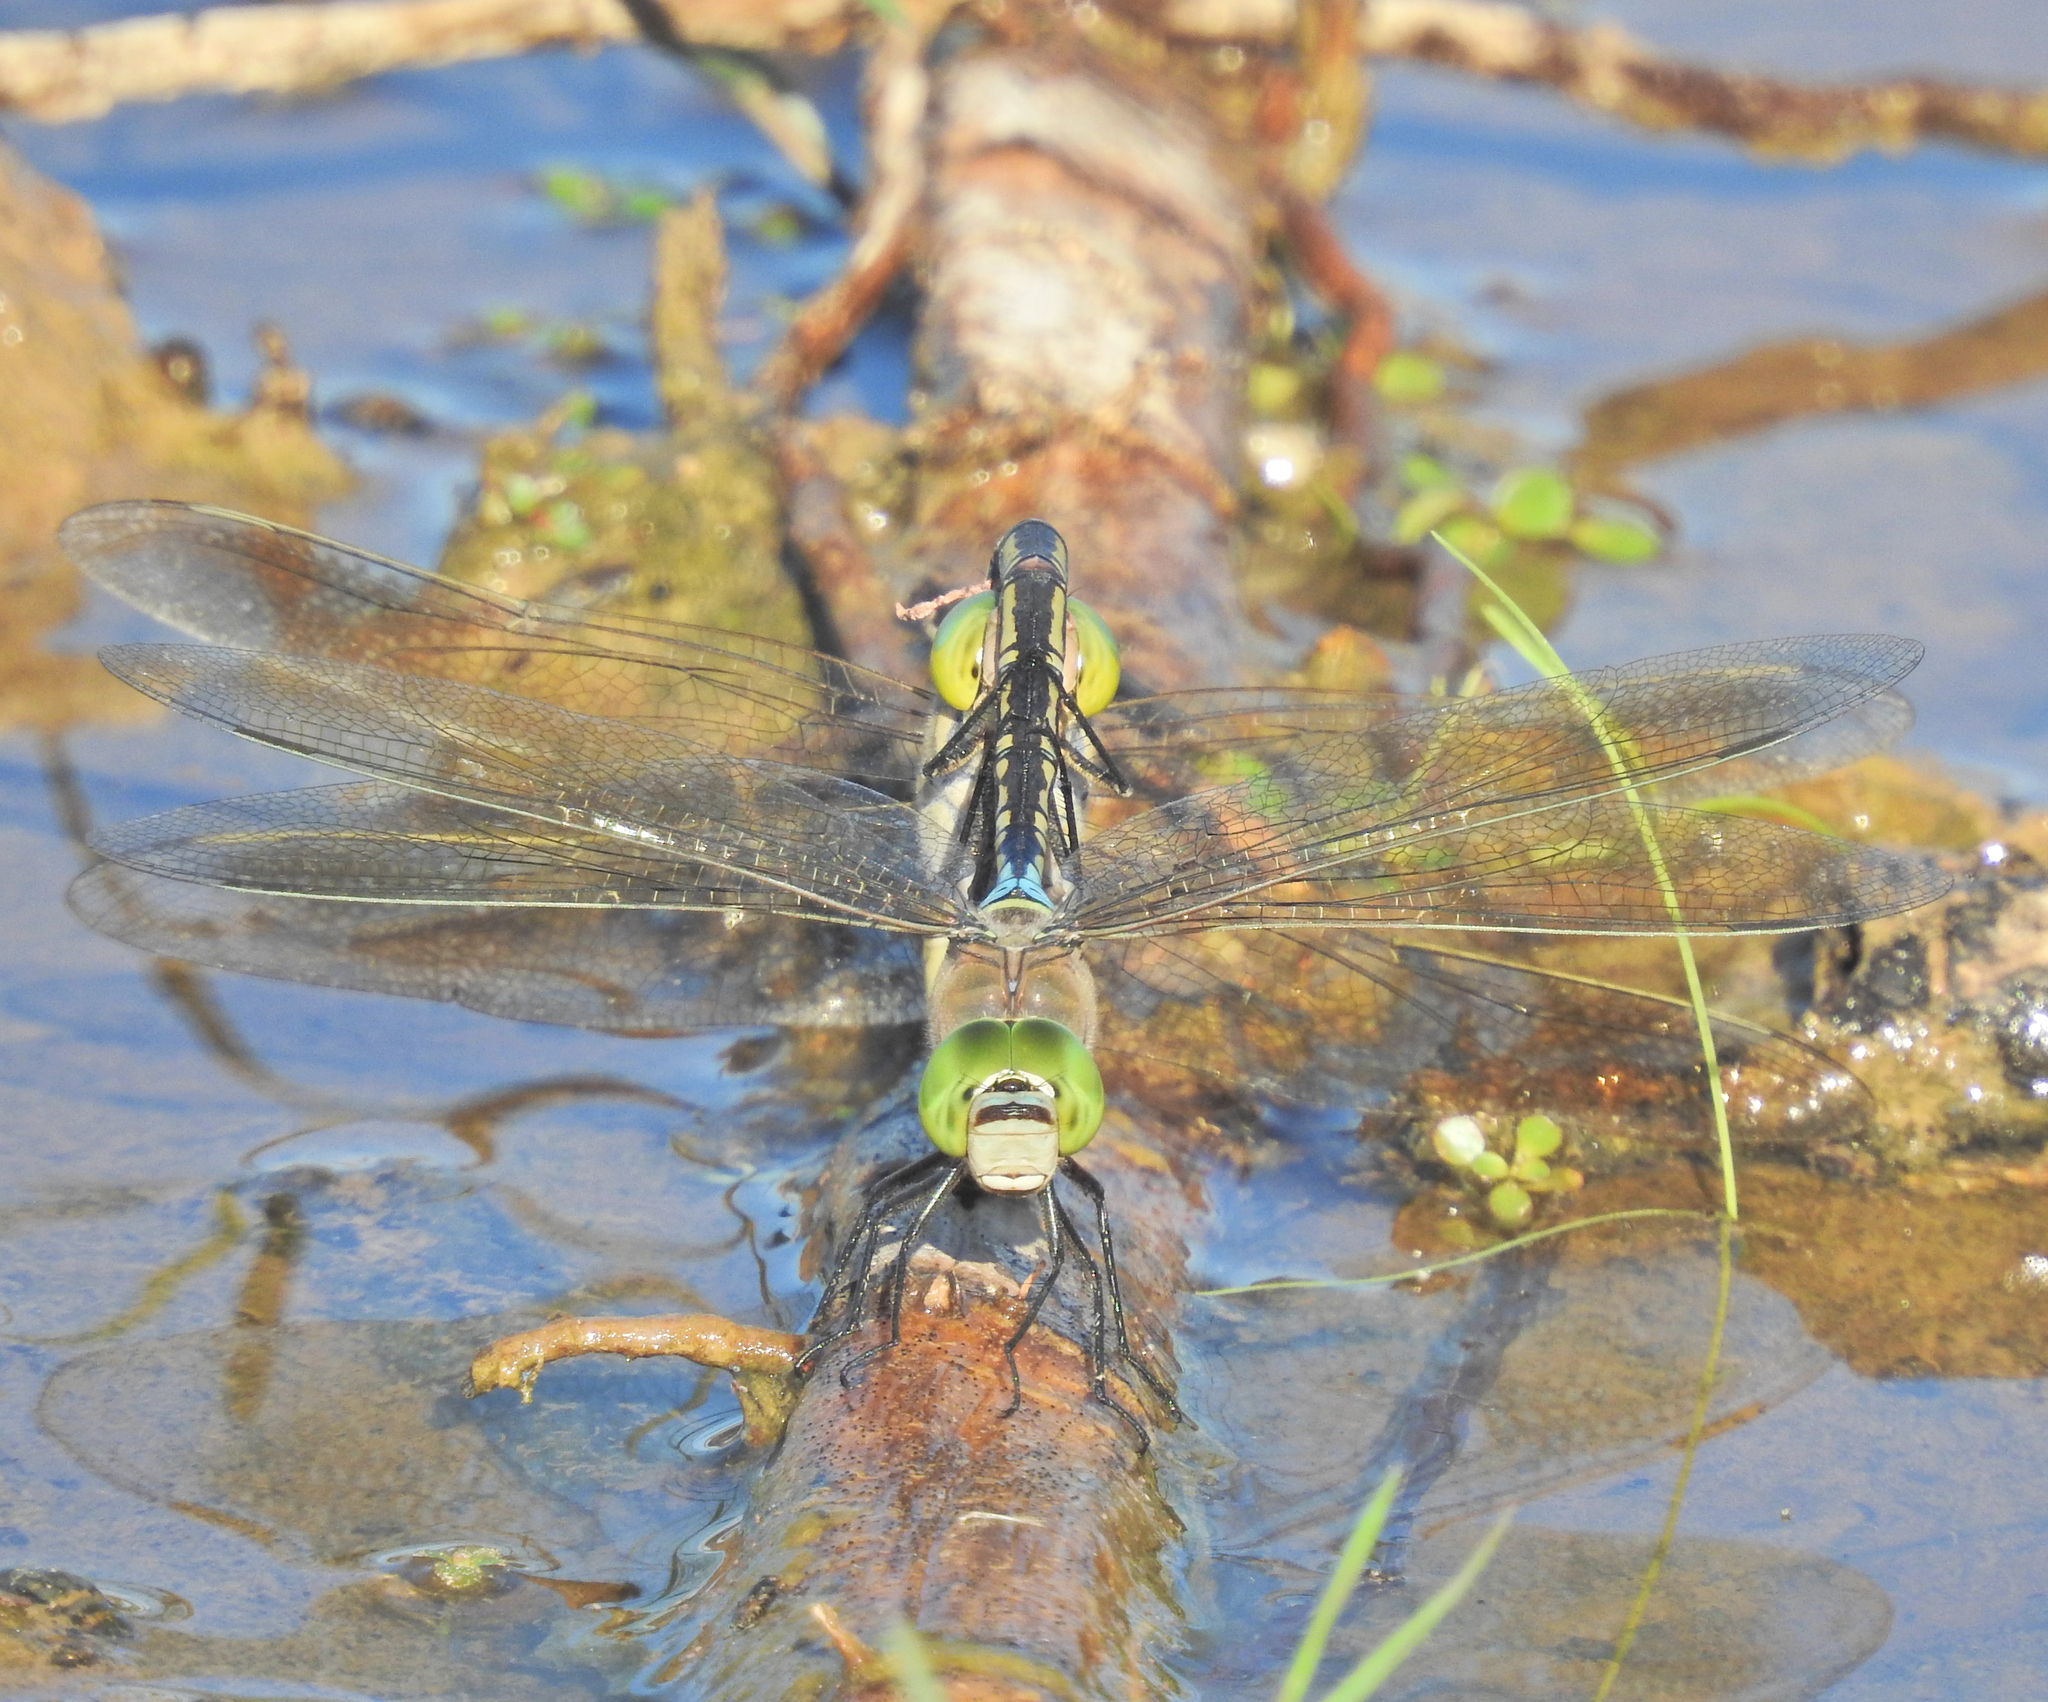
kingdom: Animalia
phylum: Arthropoda
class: Insecta
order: Odonata
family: Aeshnidae
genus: Anax
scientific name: Anax parthenope
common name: Lesser emperor
